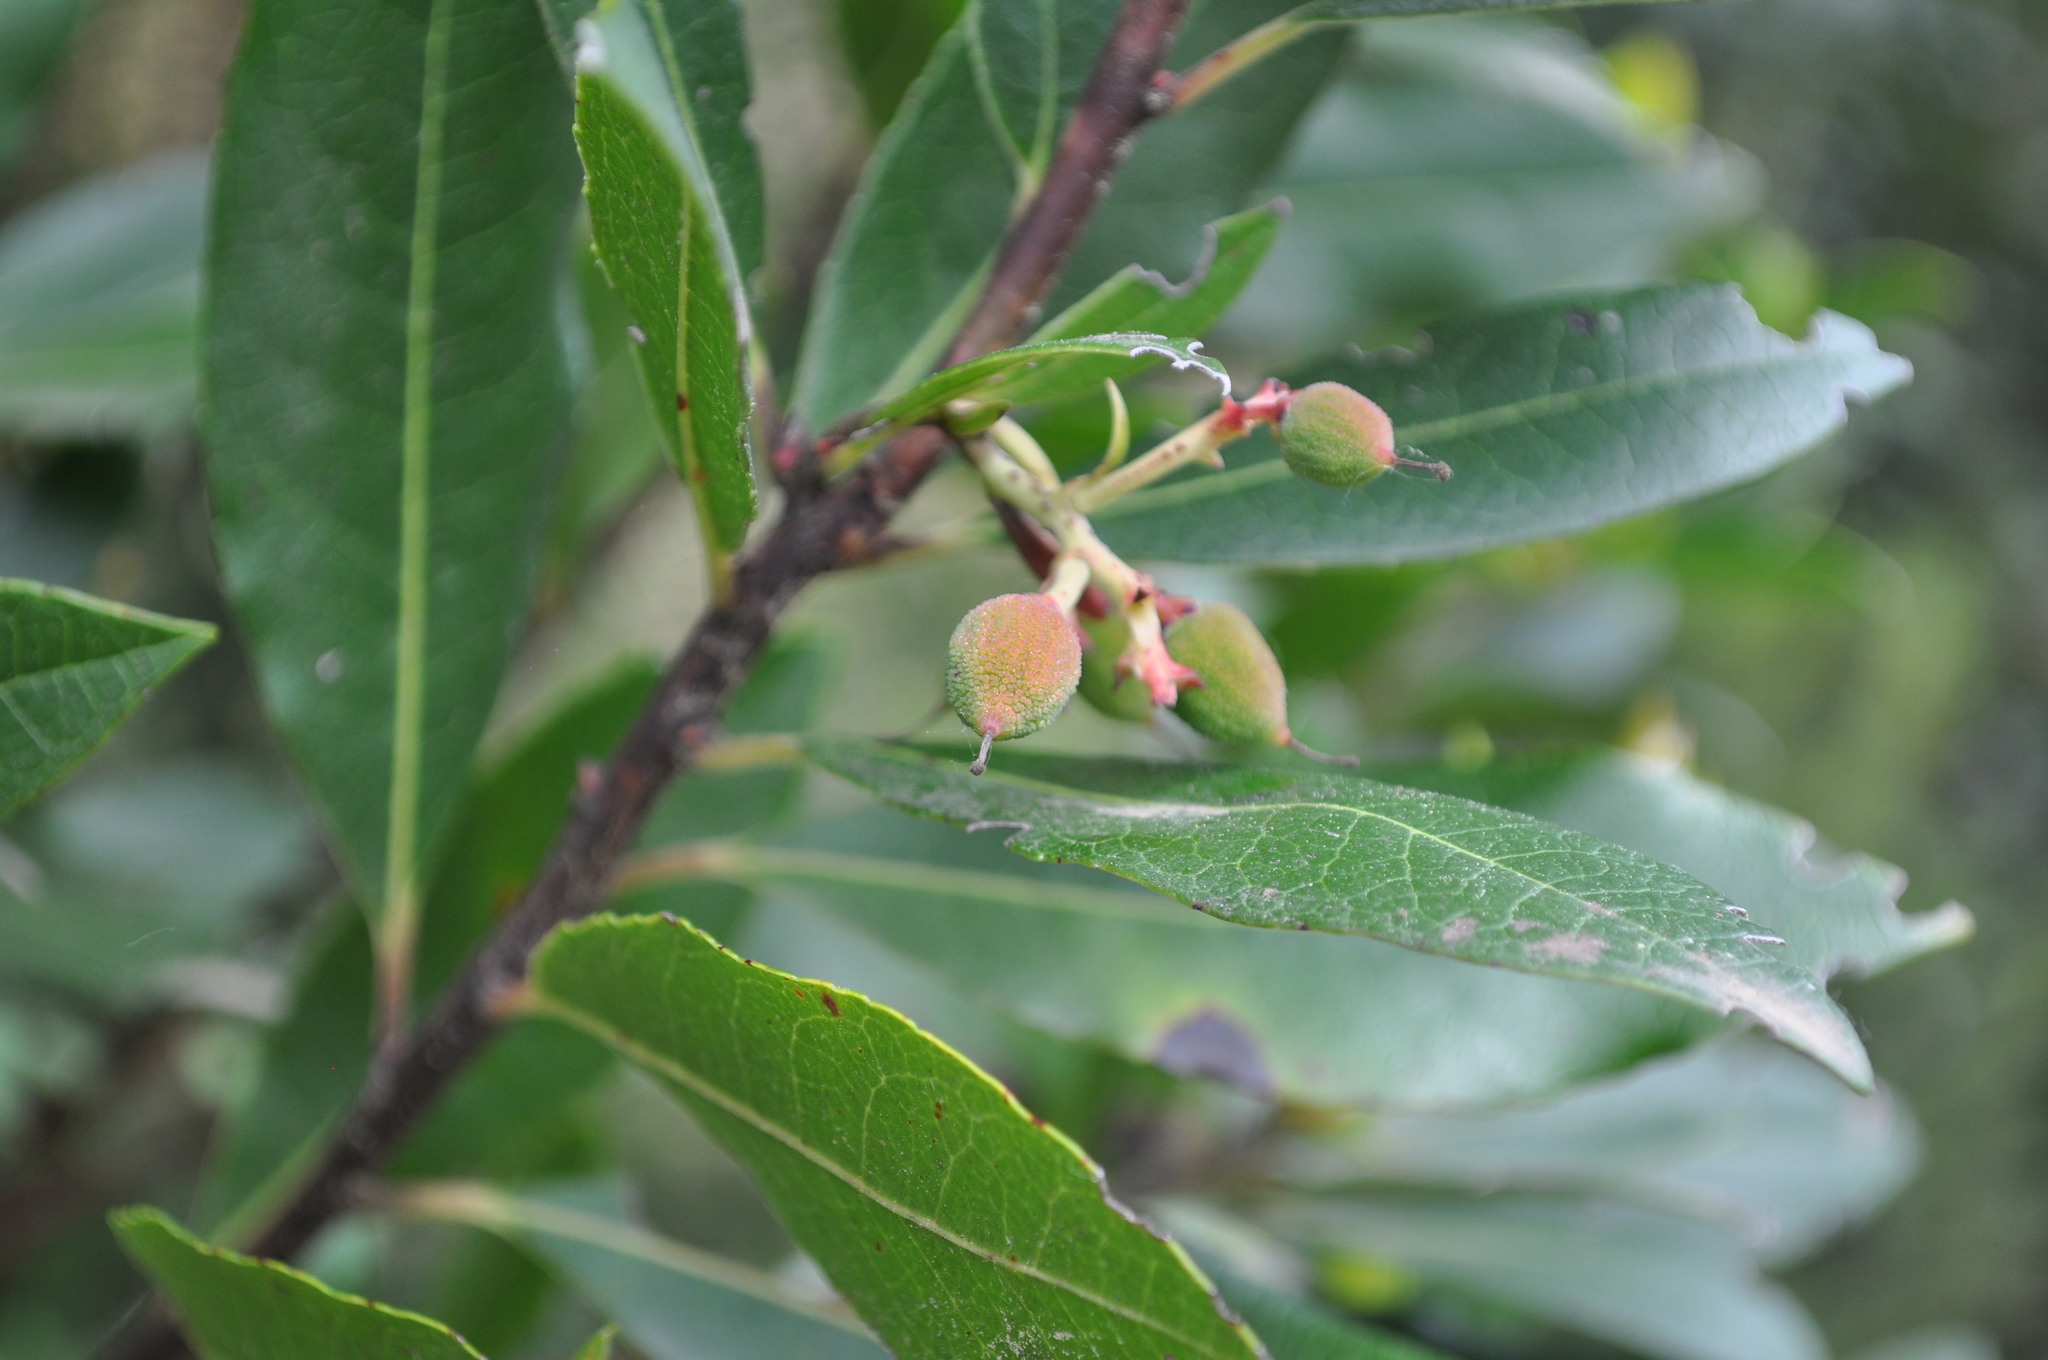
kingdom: Plantae
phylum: Tracheophyta
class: Magnoliopsida
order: Ericales
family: Ericaceae
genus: Arbutus
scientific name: Arbutus unedo
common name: Strawberry-tree
